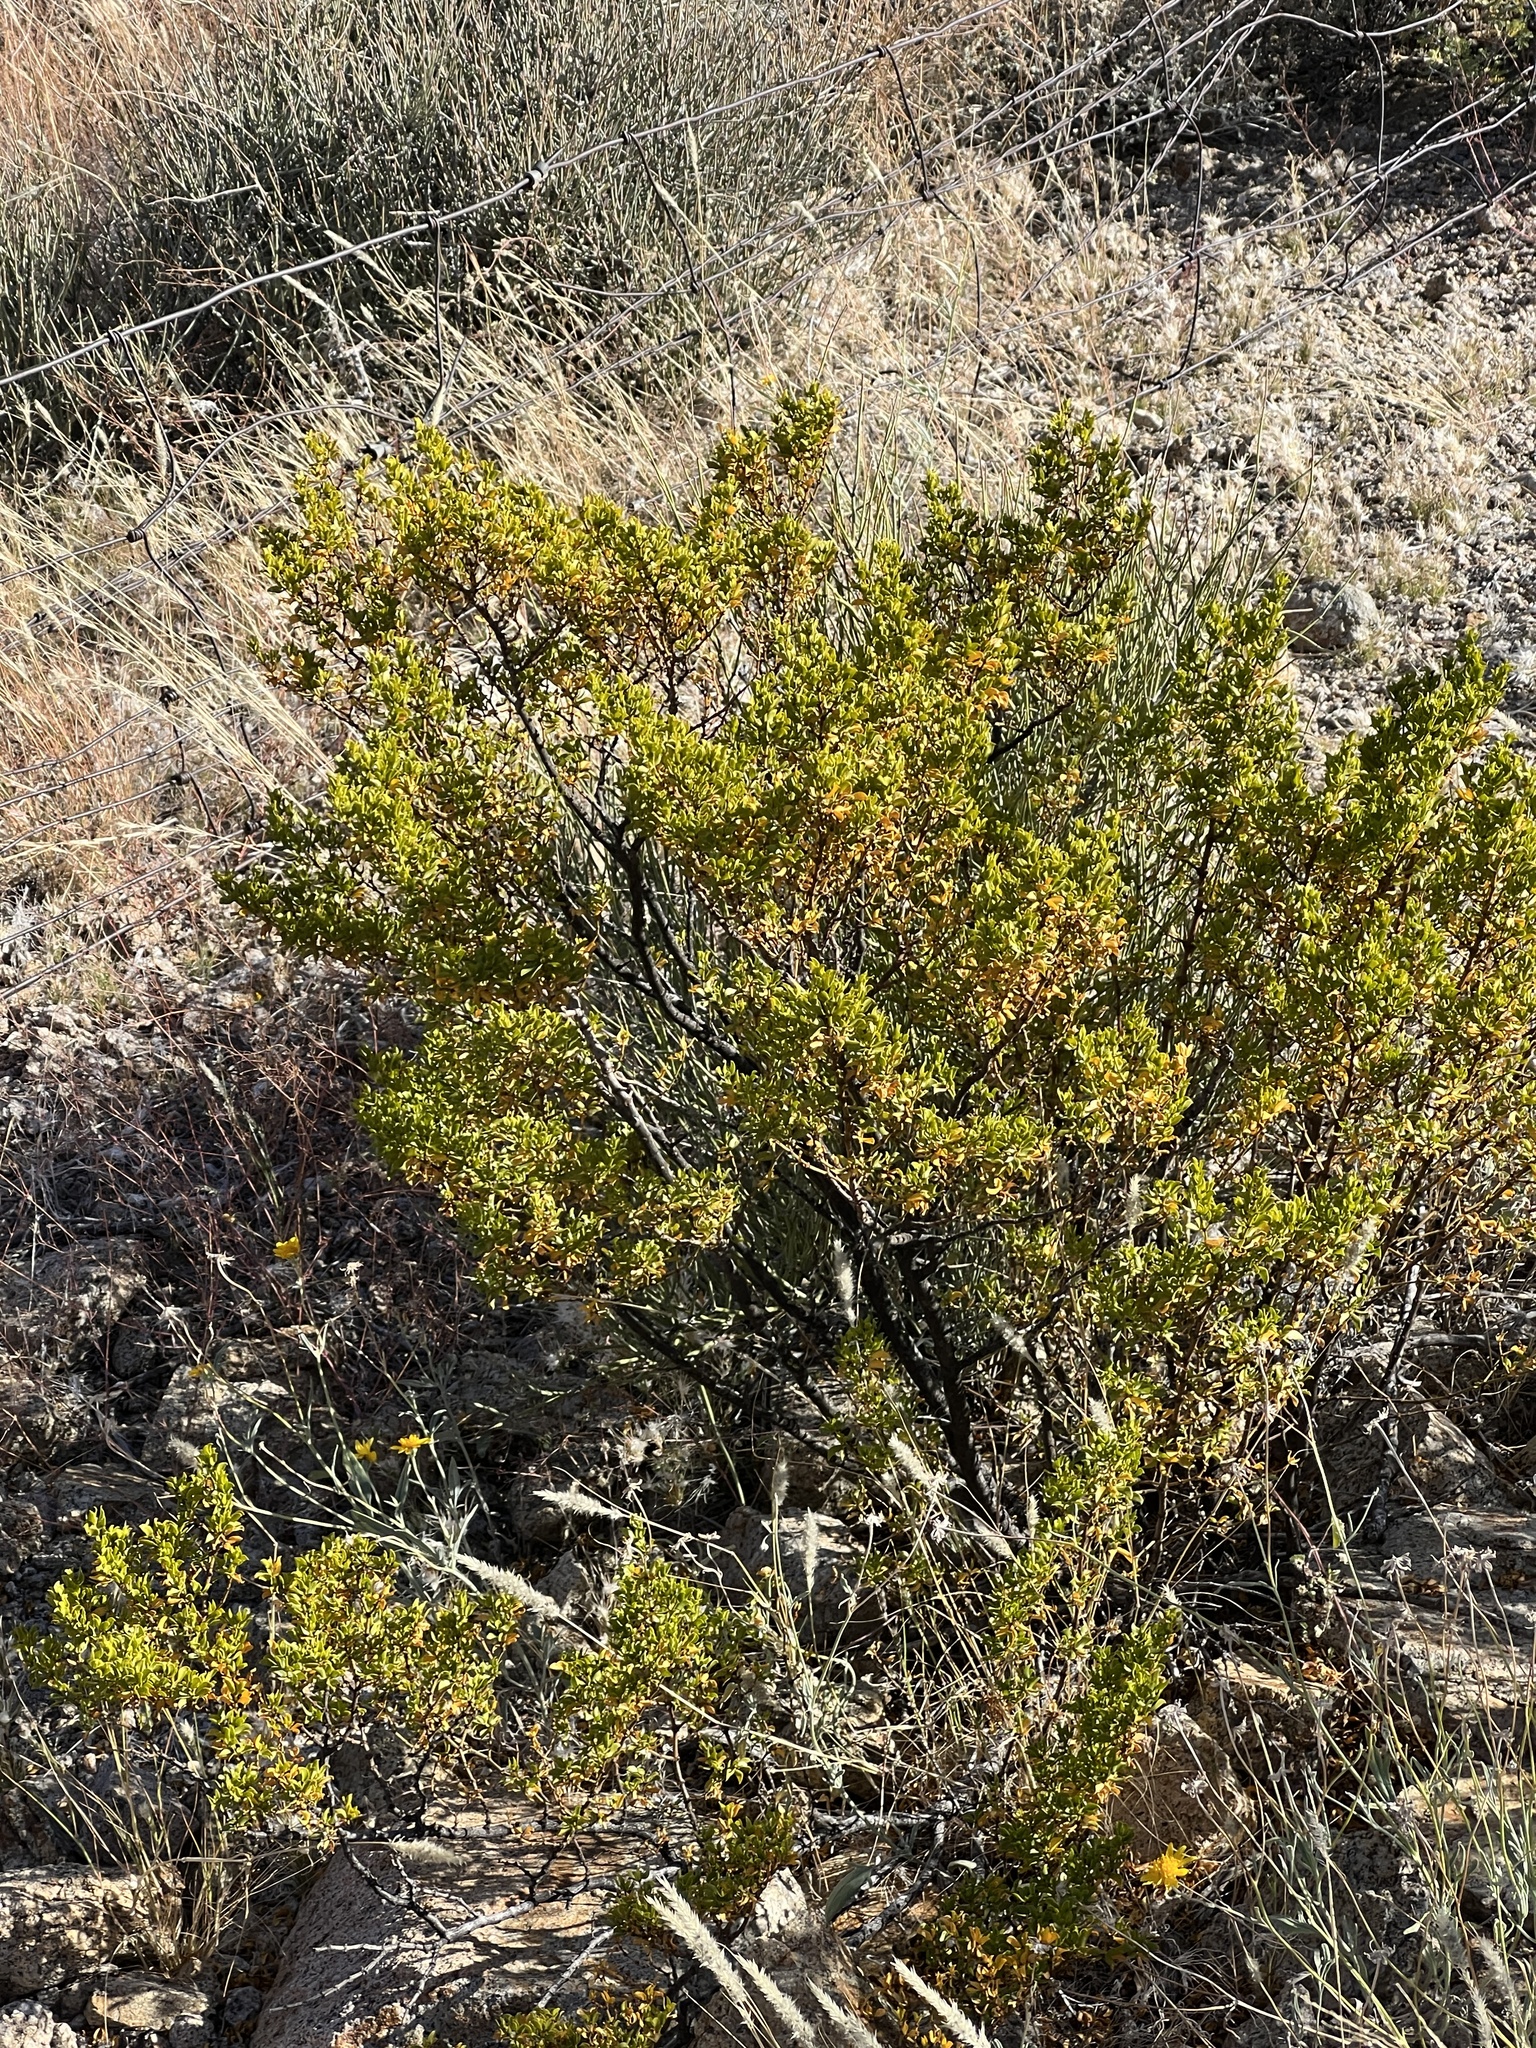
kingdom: Plantae
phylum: Tracheophyta
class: Magnoliopsida
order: Zygophyllales
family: Zygophyllaceae
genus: Larrea
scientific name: Larrea tridentata
